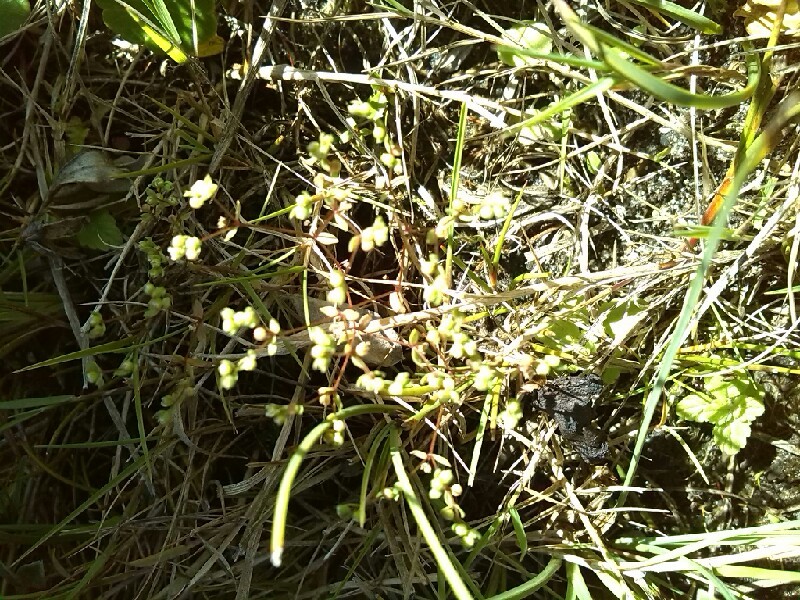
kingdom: Plantae
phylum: Tracheophyta
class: Magnoliopsida
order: Malpighiales
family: Linaceae
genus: Radiola
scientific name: Radiola linoides
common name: Allseed
